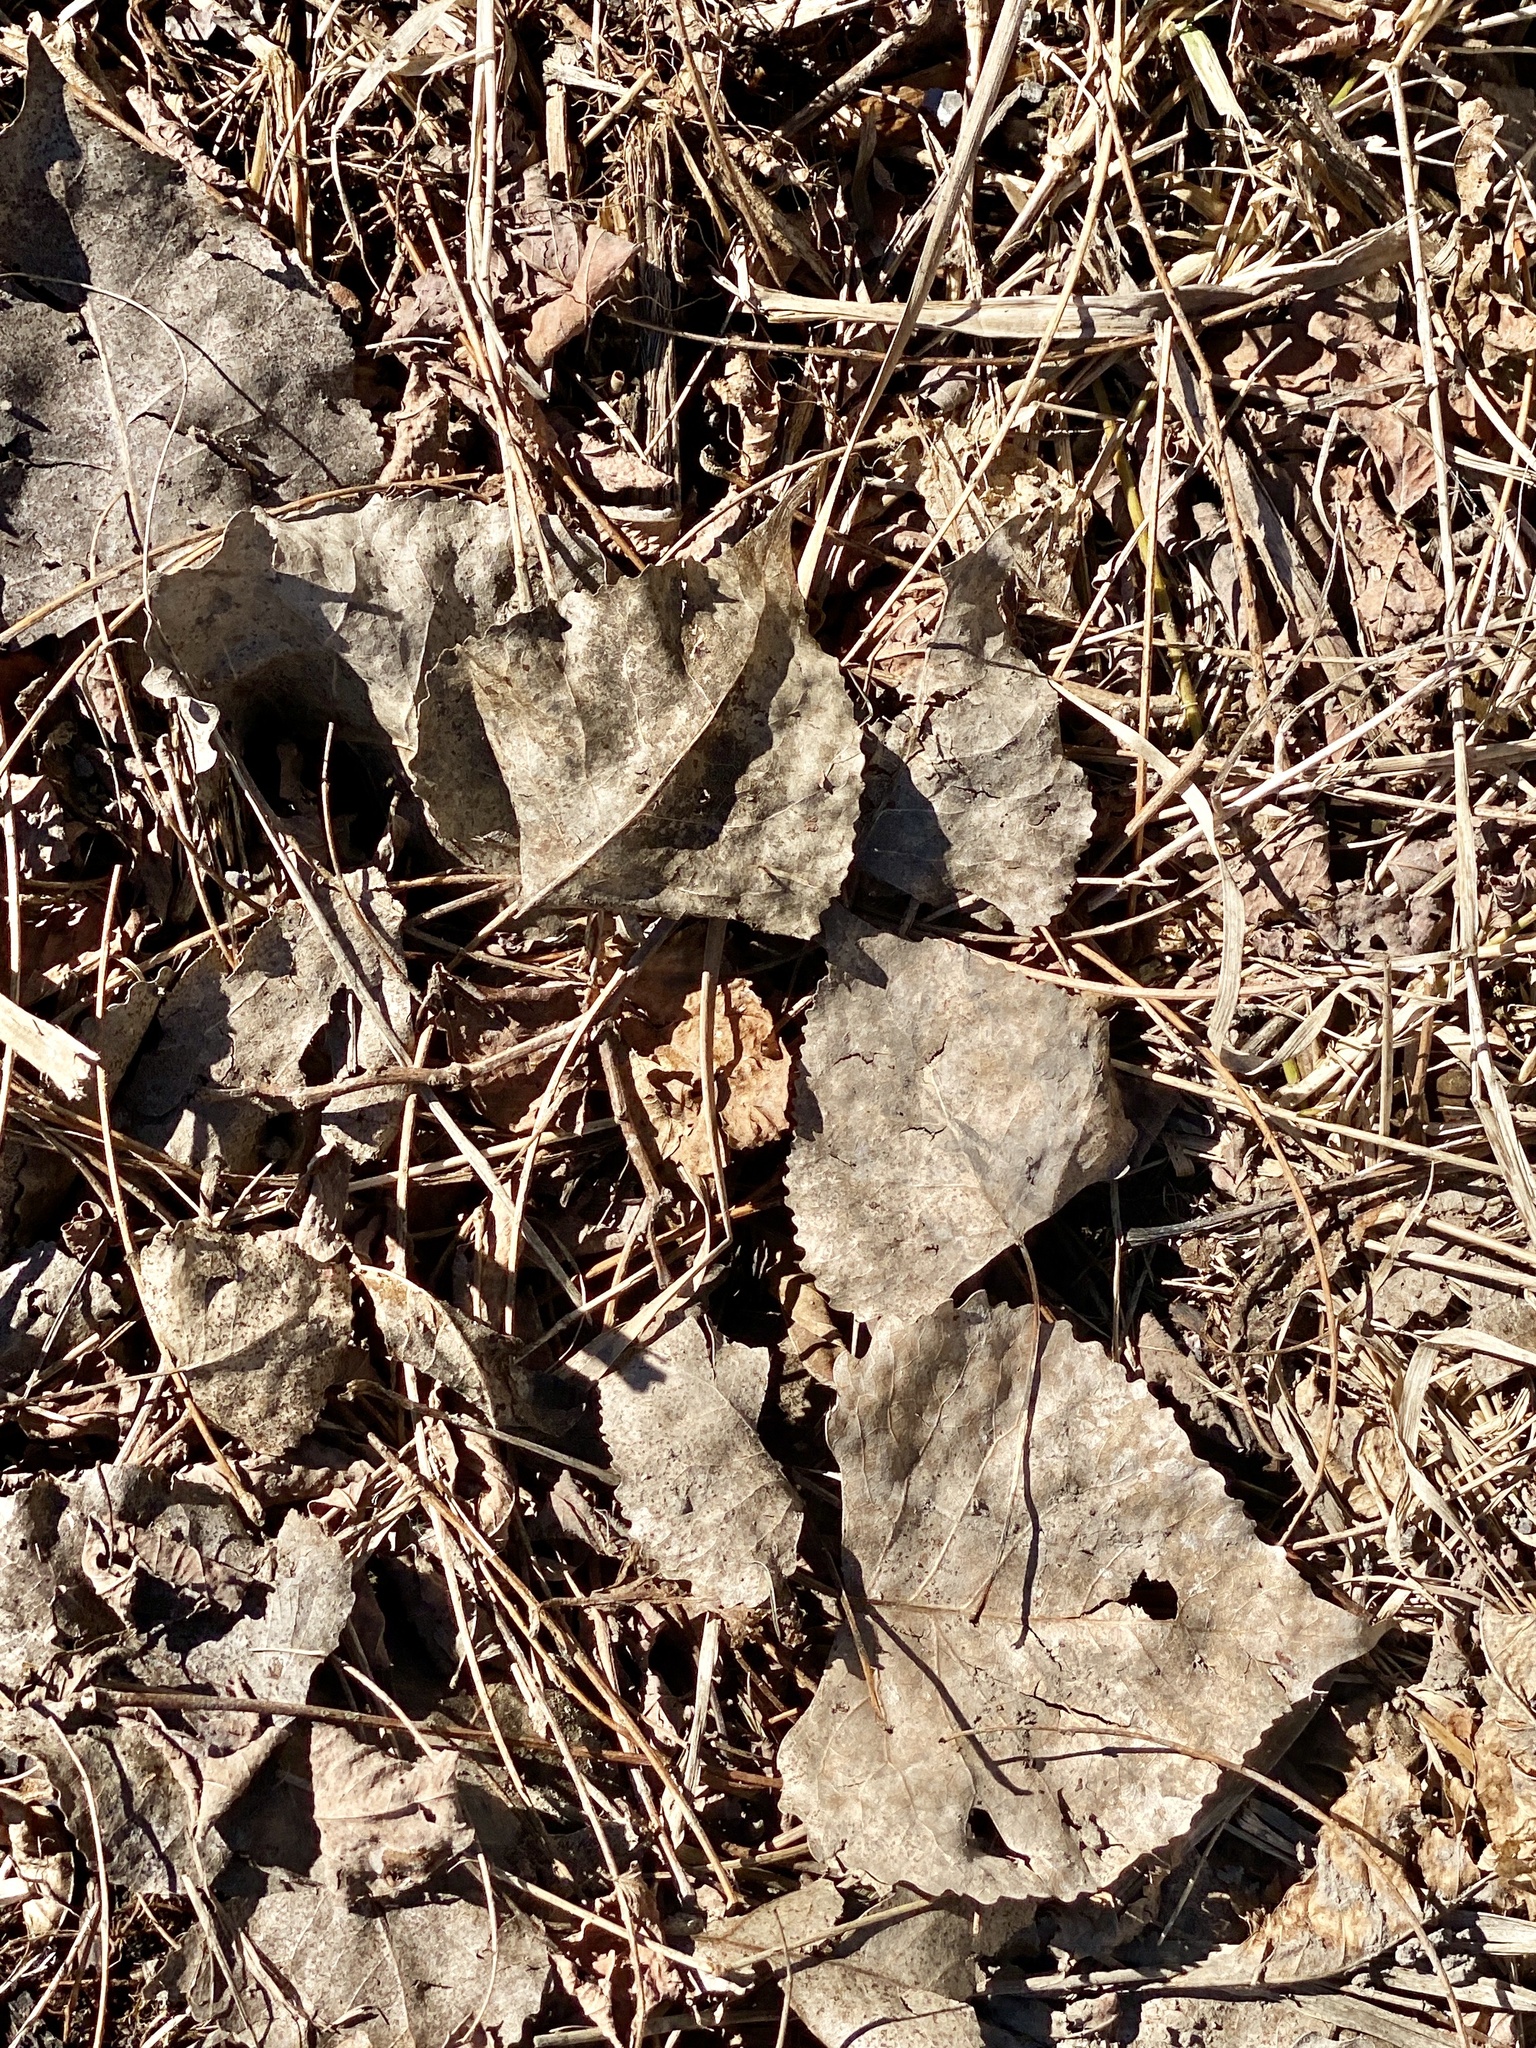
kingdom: Plantae
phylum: Tracheophyta
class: Magnoliopsida
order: Malpighiales
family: Salicaceae
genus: Populus
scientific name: Populus deltoides
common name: Eastern cottonwood
